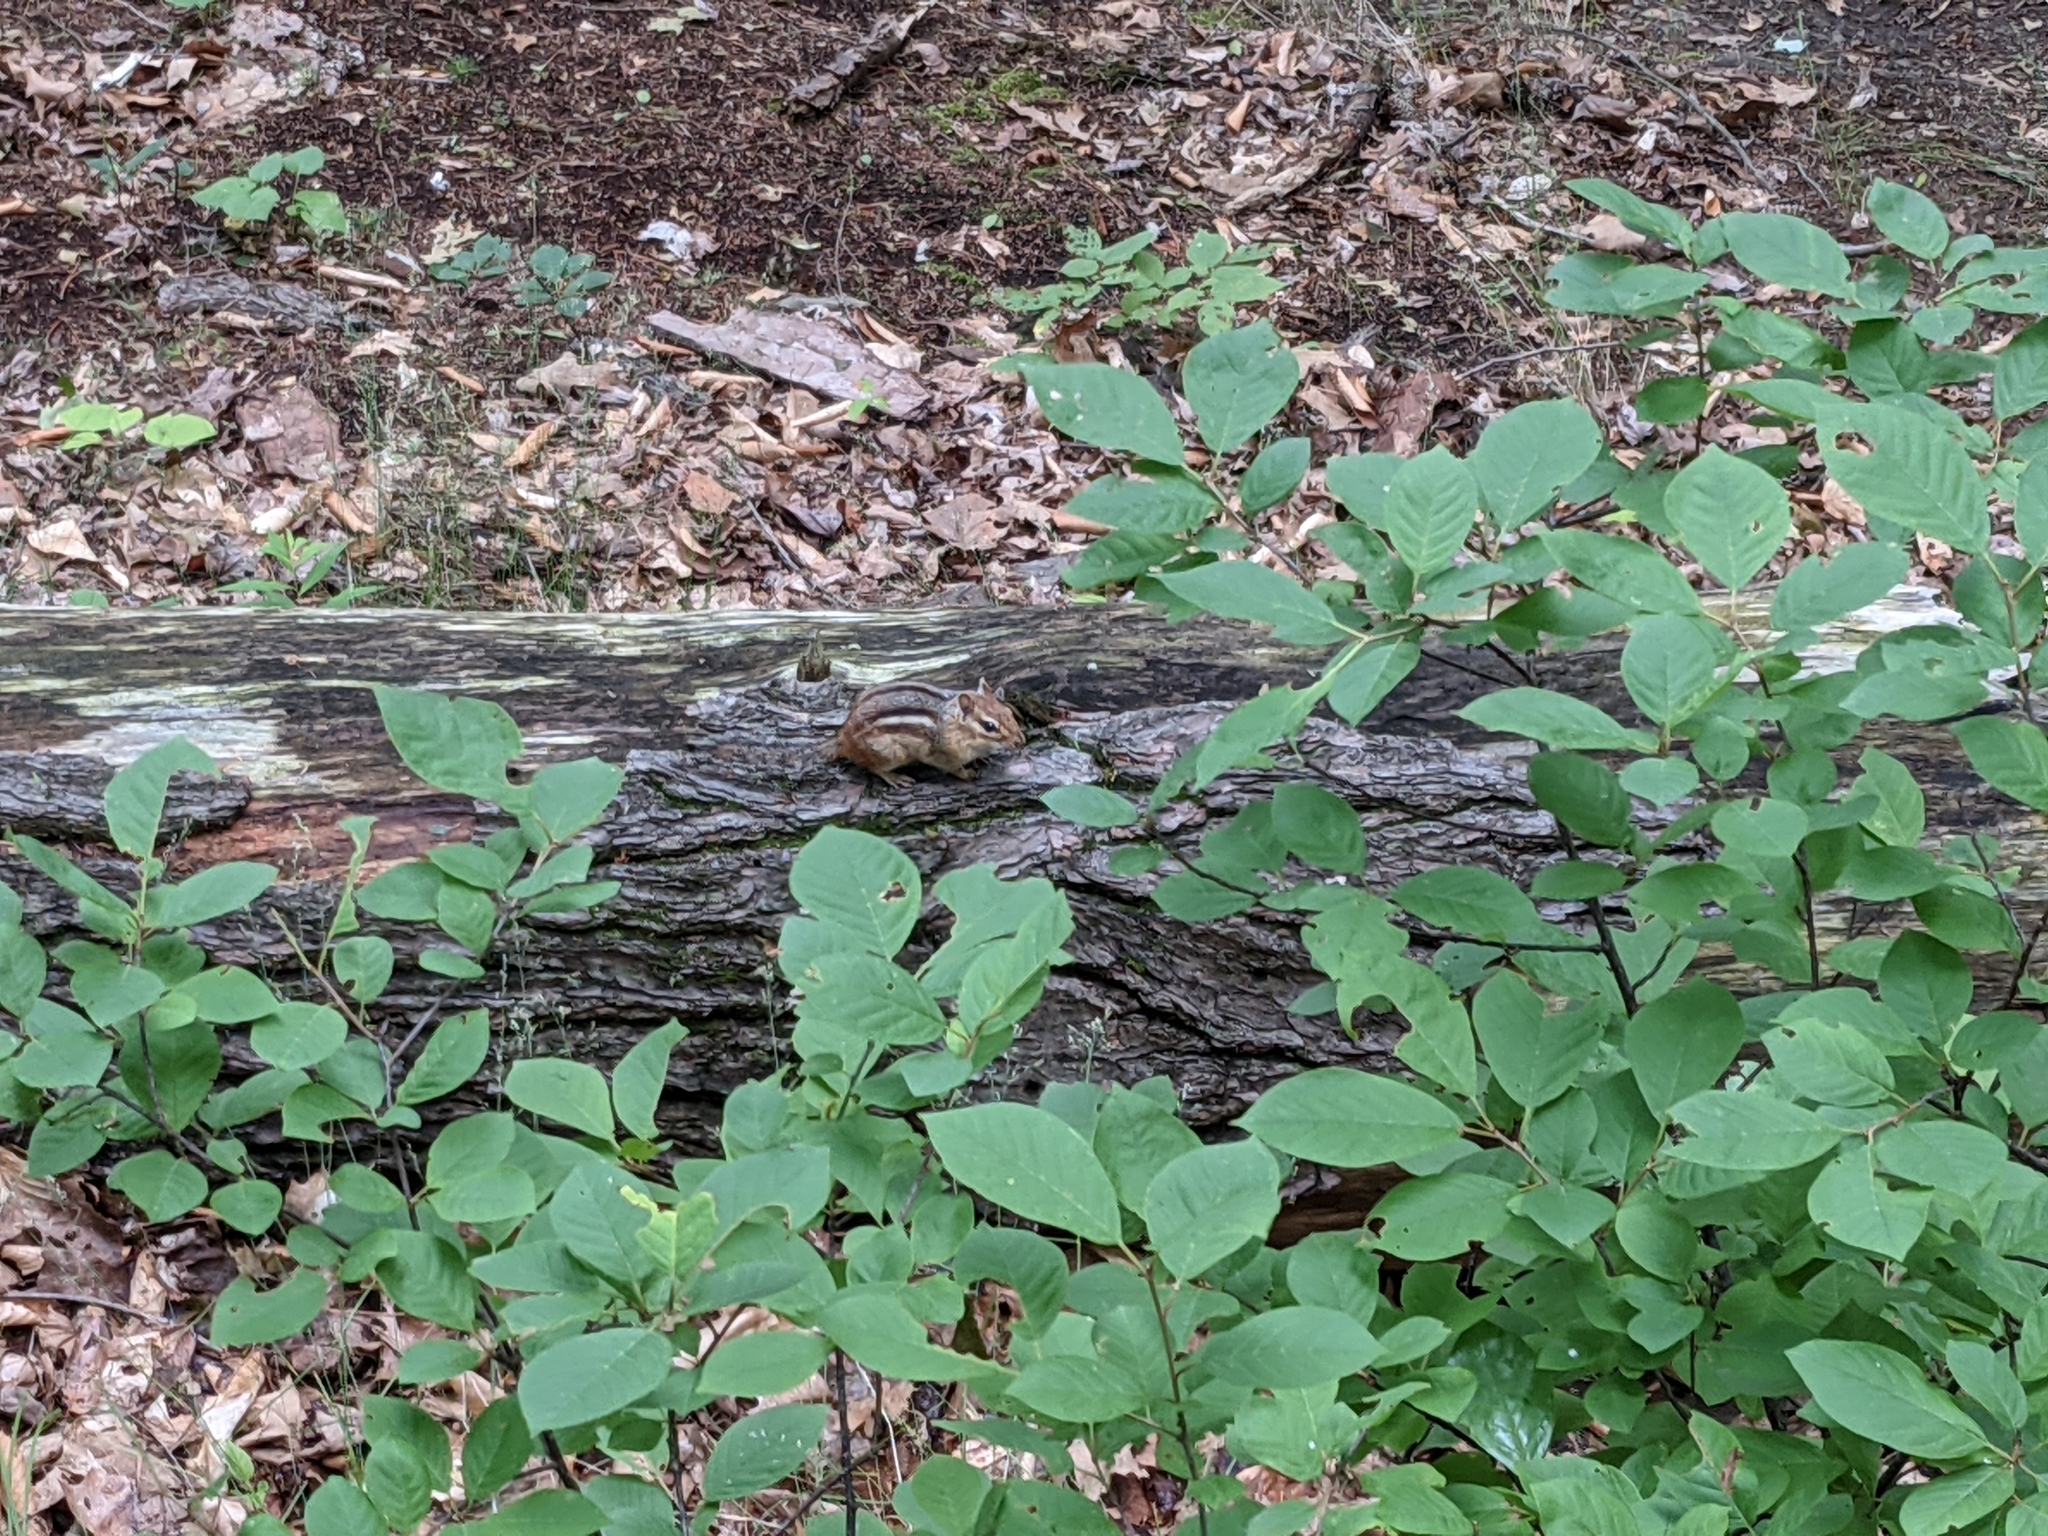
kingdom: Animalia
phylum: Chordata
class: Mammalia
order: Rodentia
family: Sciuridae
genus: Tamias
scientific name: Tamias striatus
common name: Eastern chipmunk
